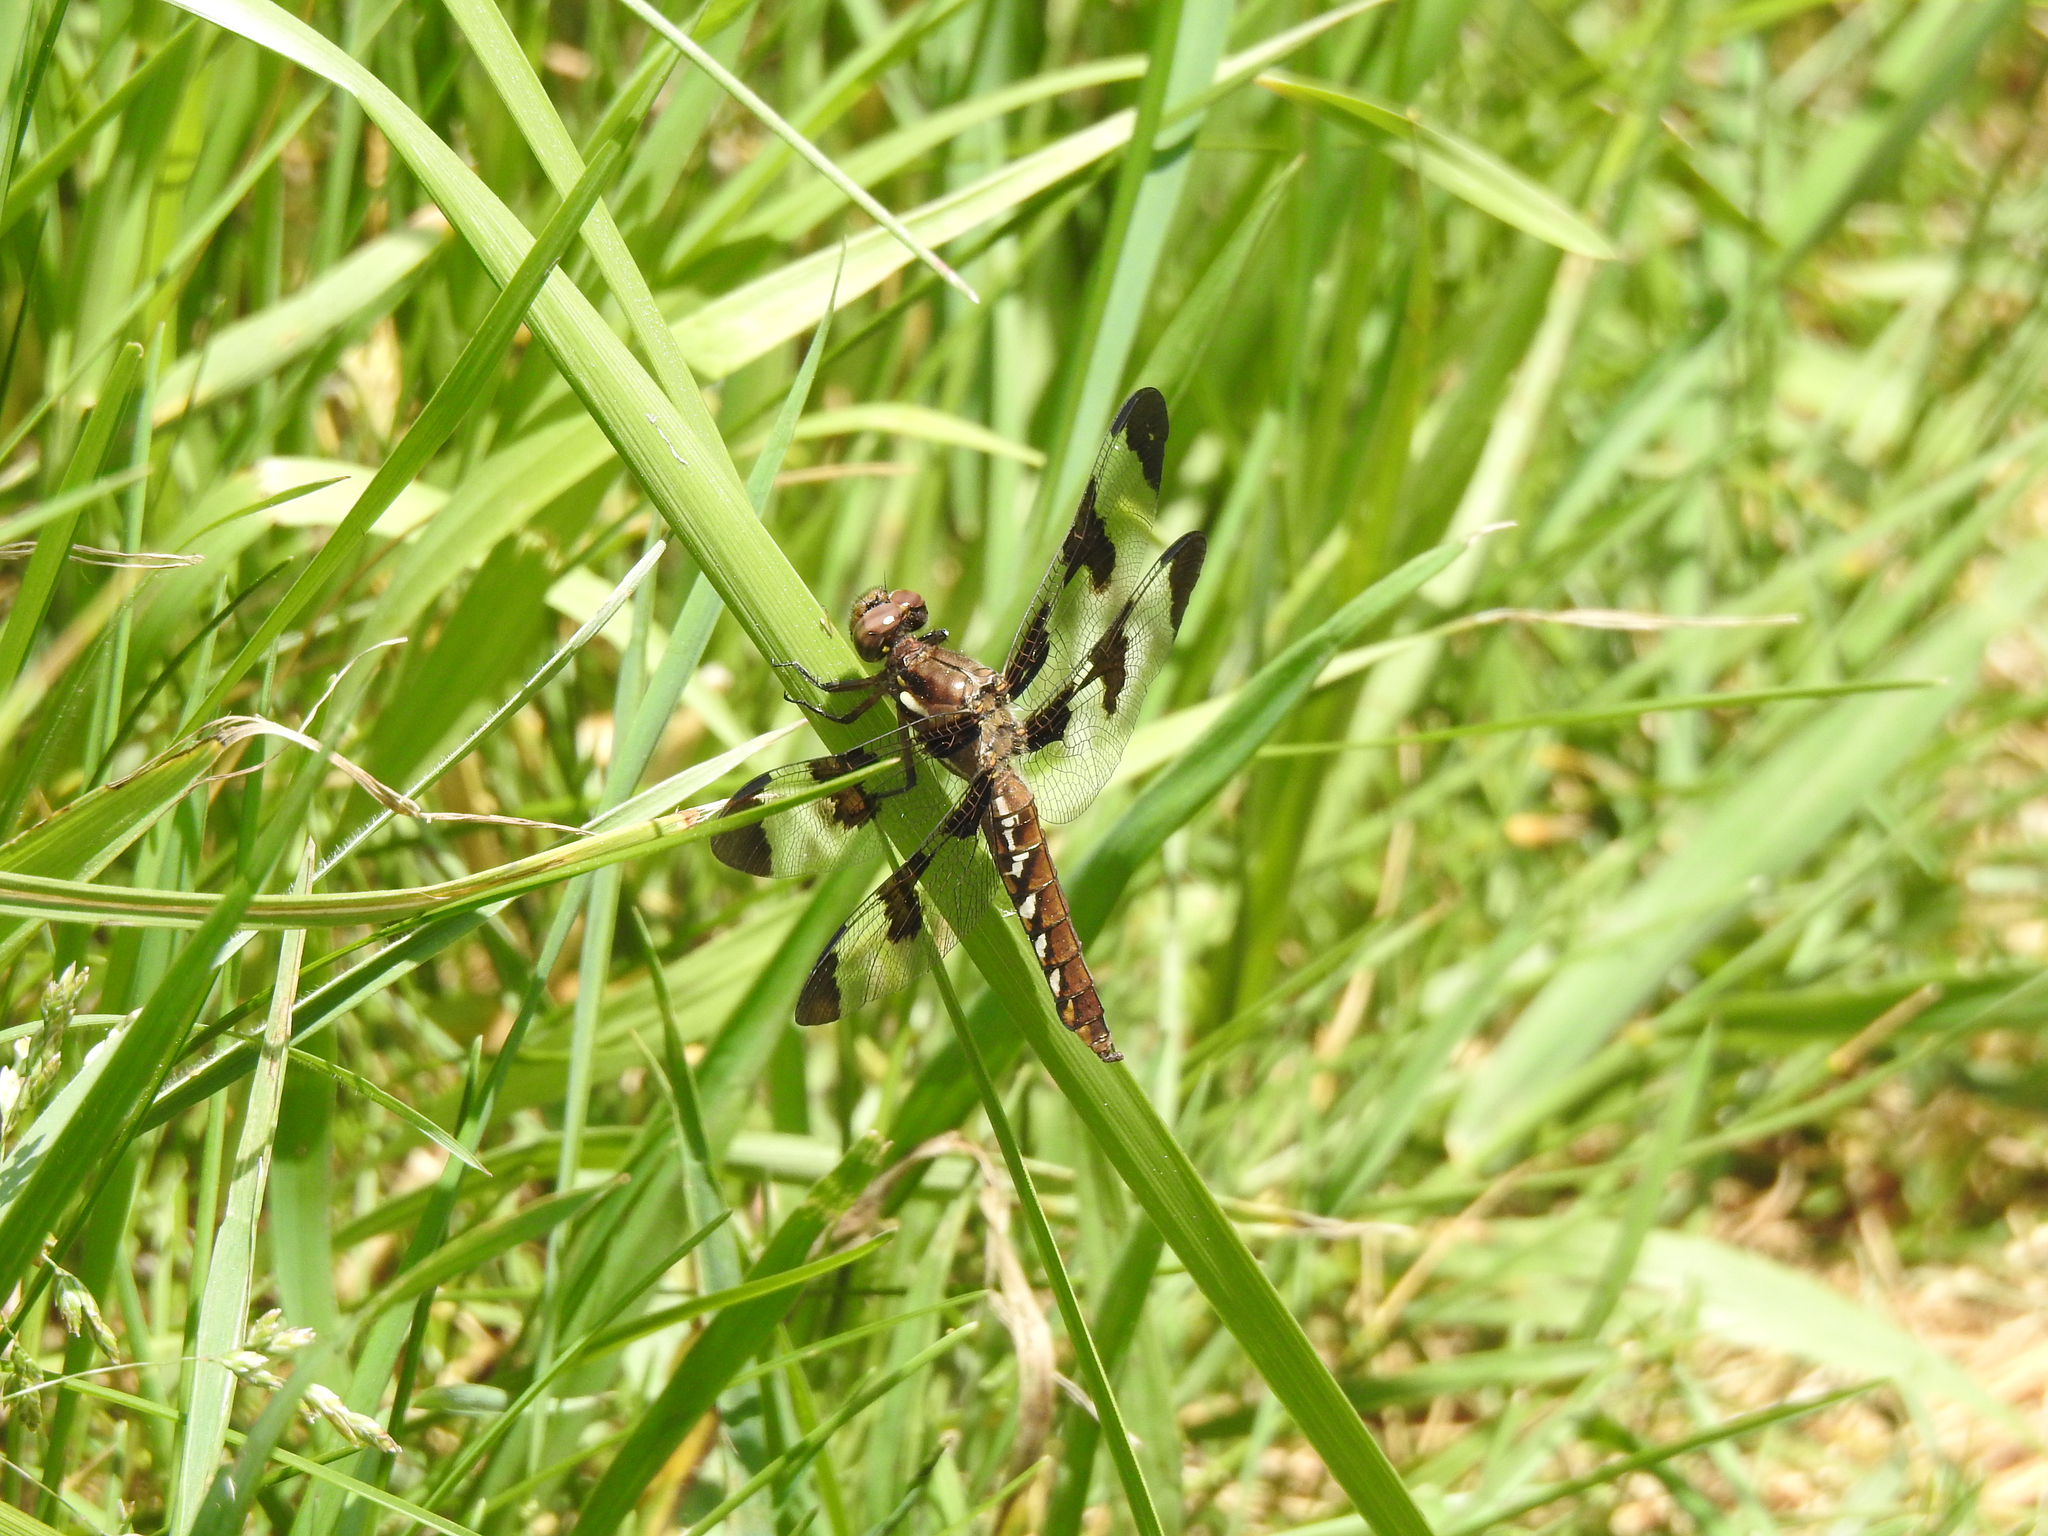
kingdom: Animalia
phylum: Arthropoda
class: Insecta
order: Odonata
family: Libellulidae
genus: Plathemis
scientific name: Plathemis lydia
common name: Common whitetail
